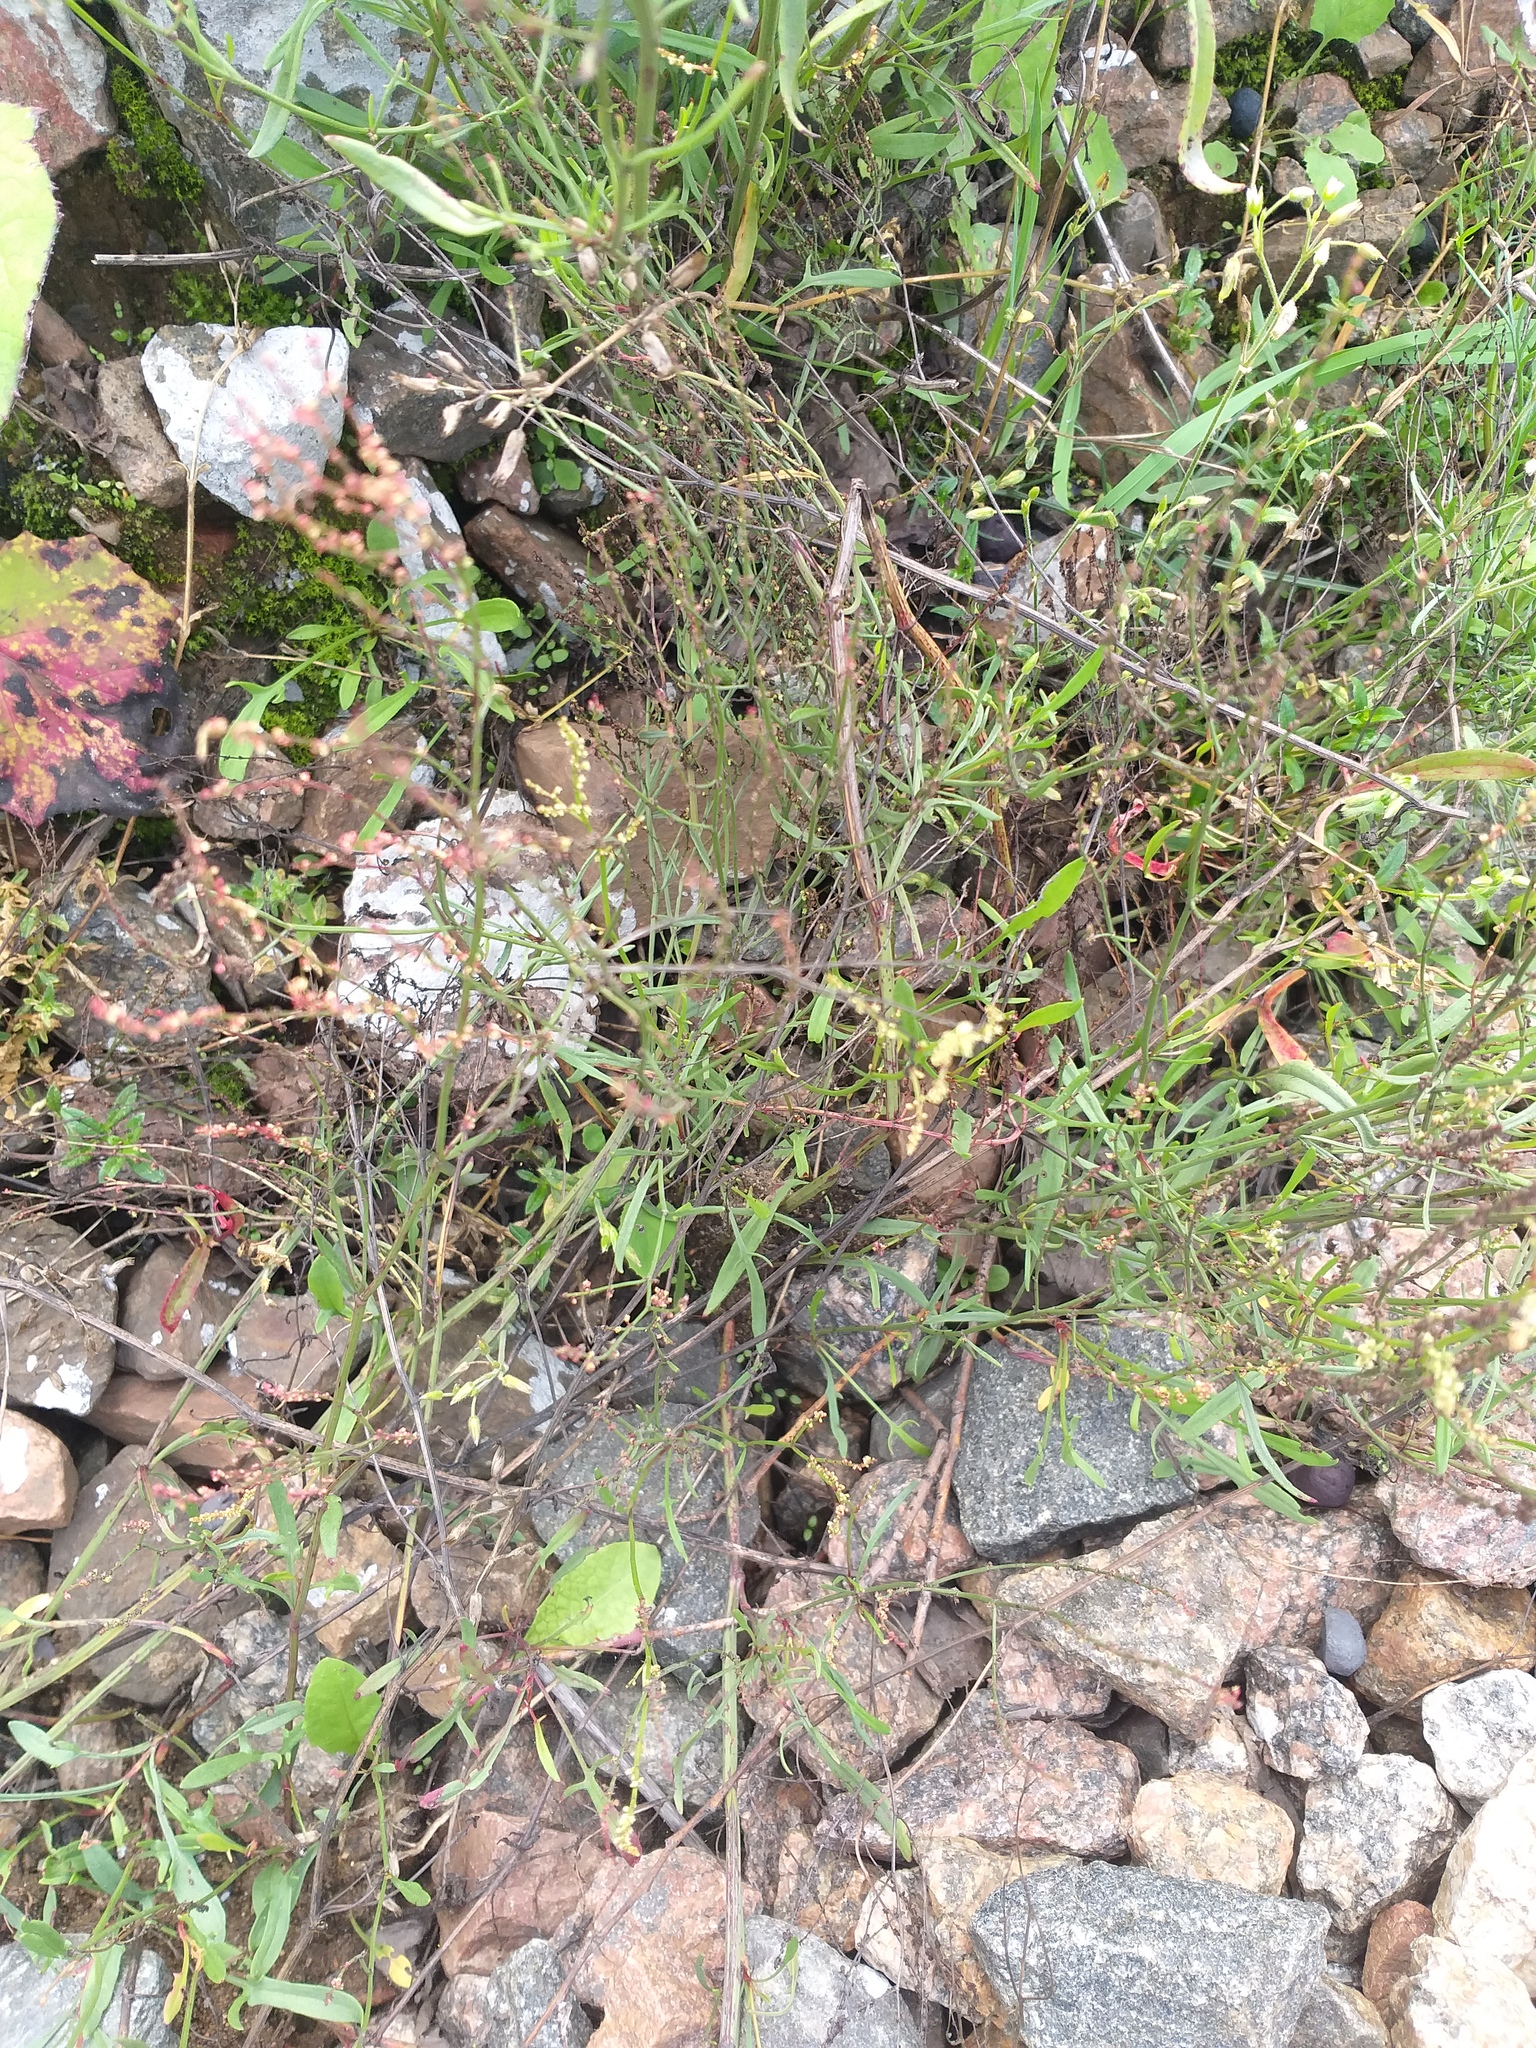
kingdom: Plantae
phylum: Tracheophyta
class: Magnoliopsida
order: Caryophyllales
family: Polygonaceae
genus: Rumex
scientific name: Rumex acetosella
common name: Common sheep sorrel
